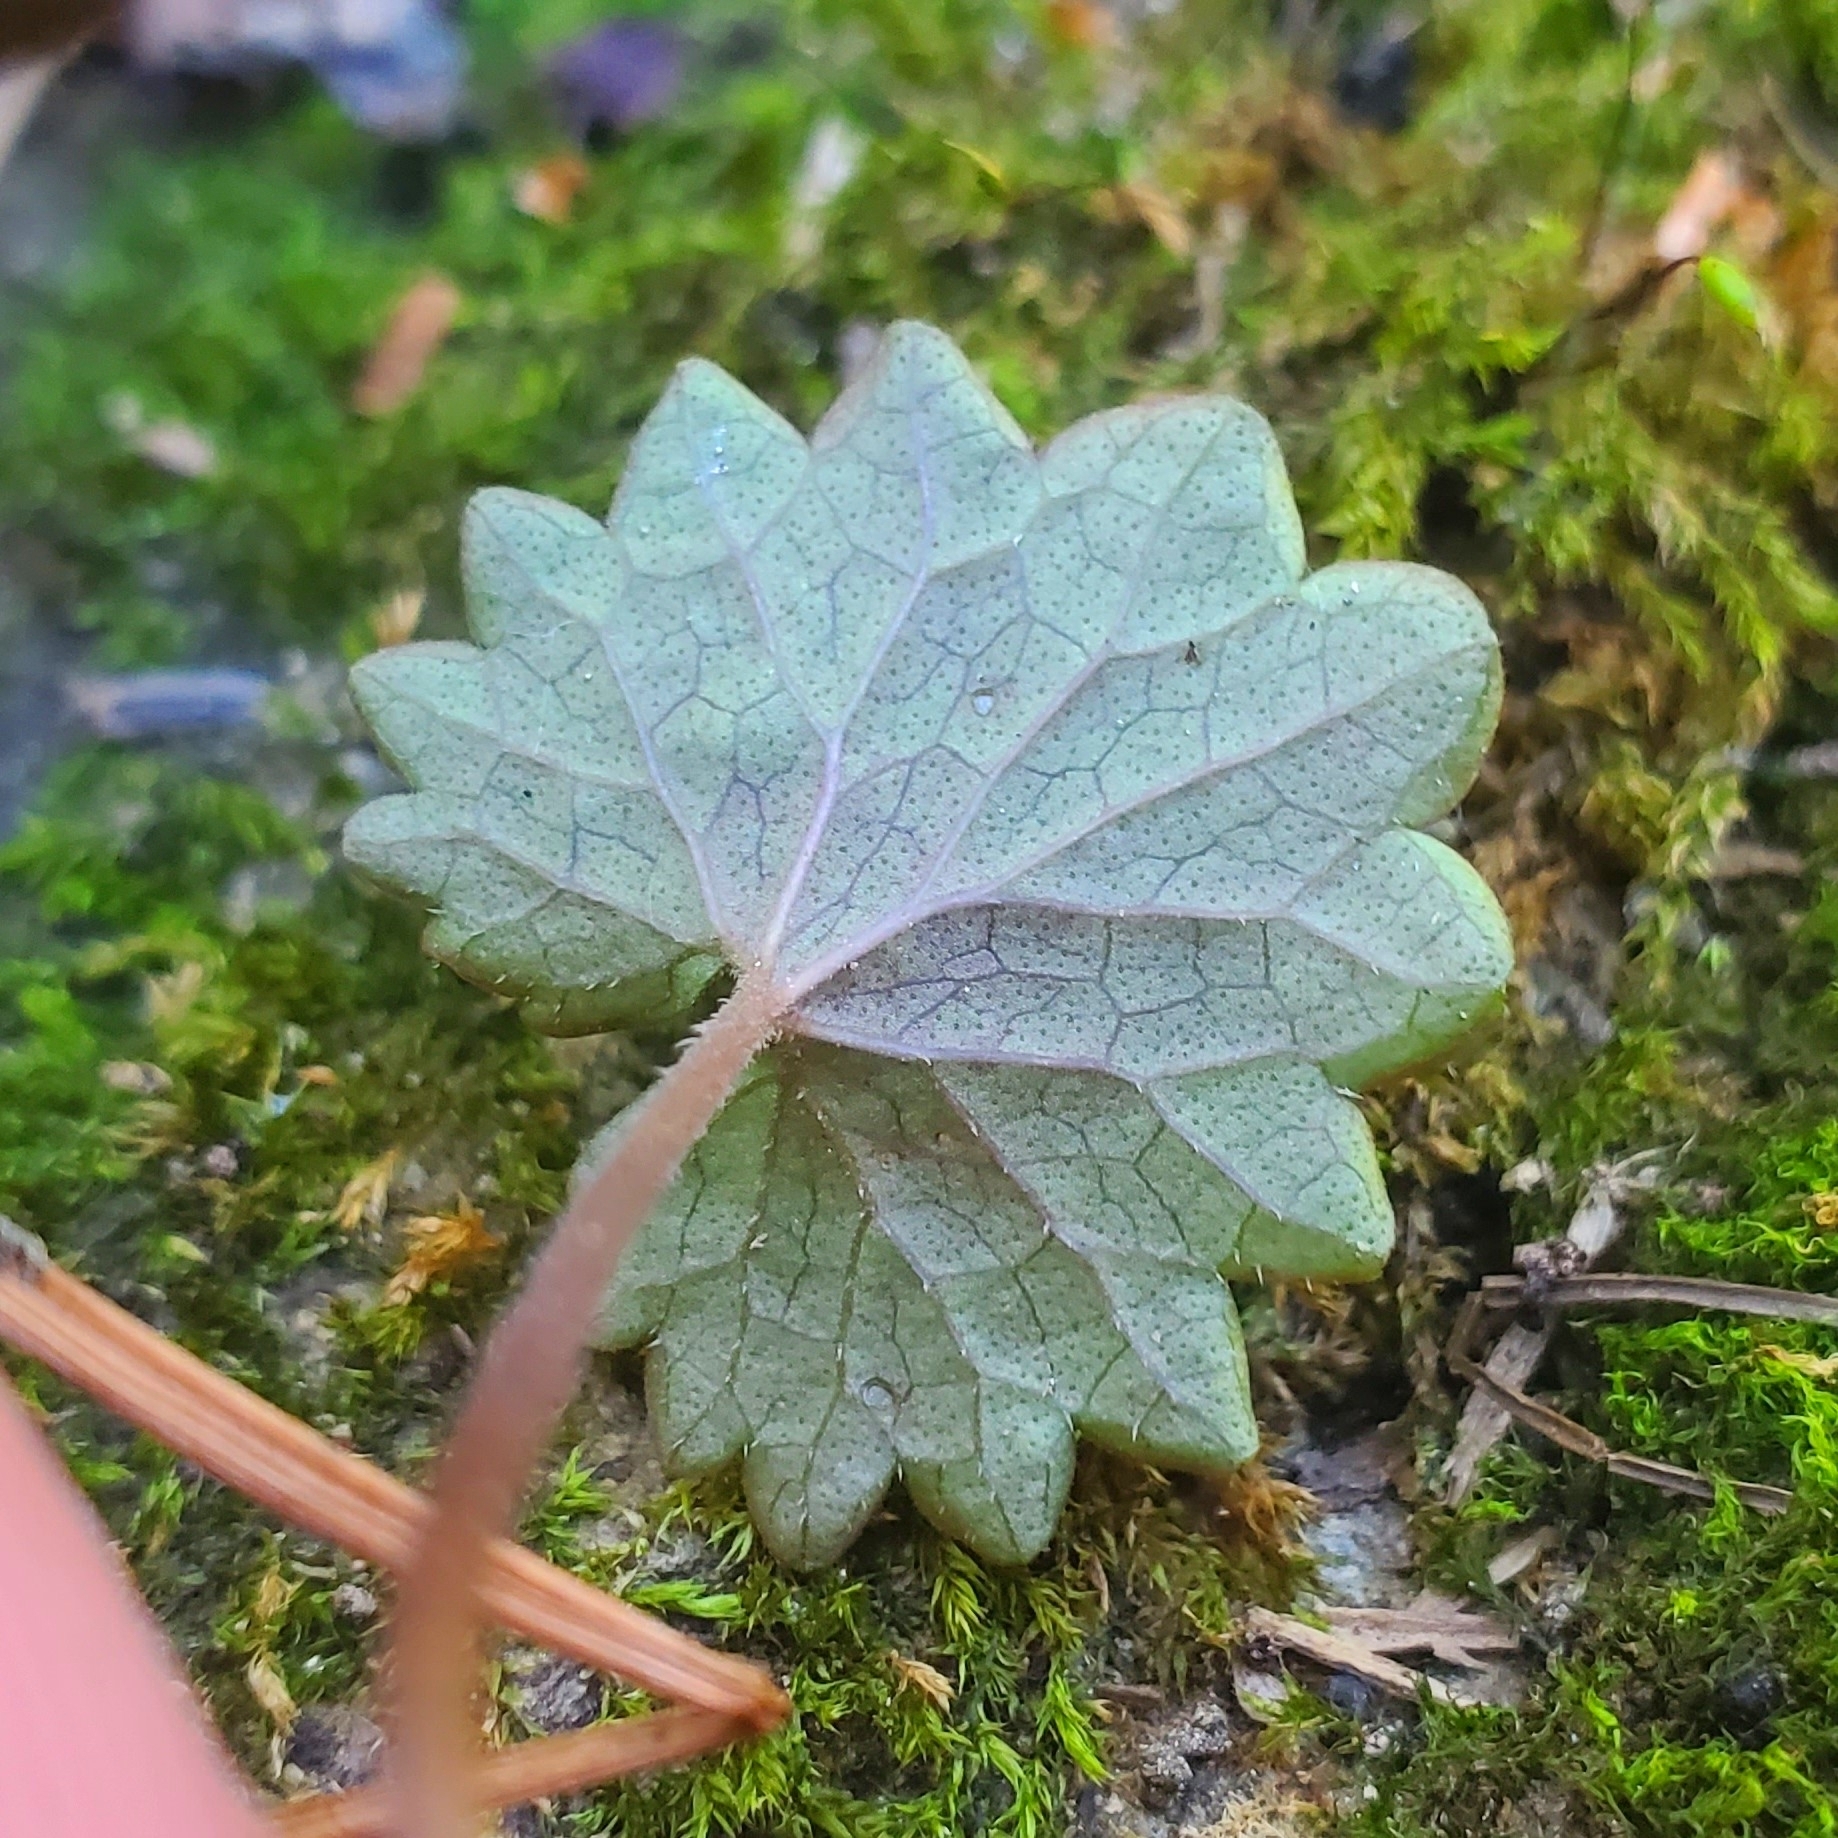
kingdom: Plantae
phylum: Tracheophyta
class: Magnoliopsida
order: Lamiales
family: Lamiaceae
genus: Glechoma
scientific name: Glechoma hederacea
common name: Ground ivy
